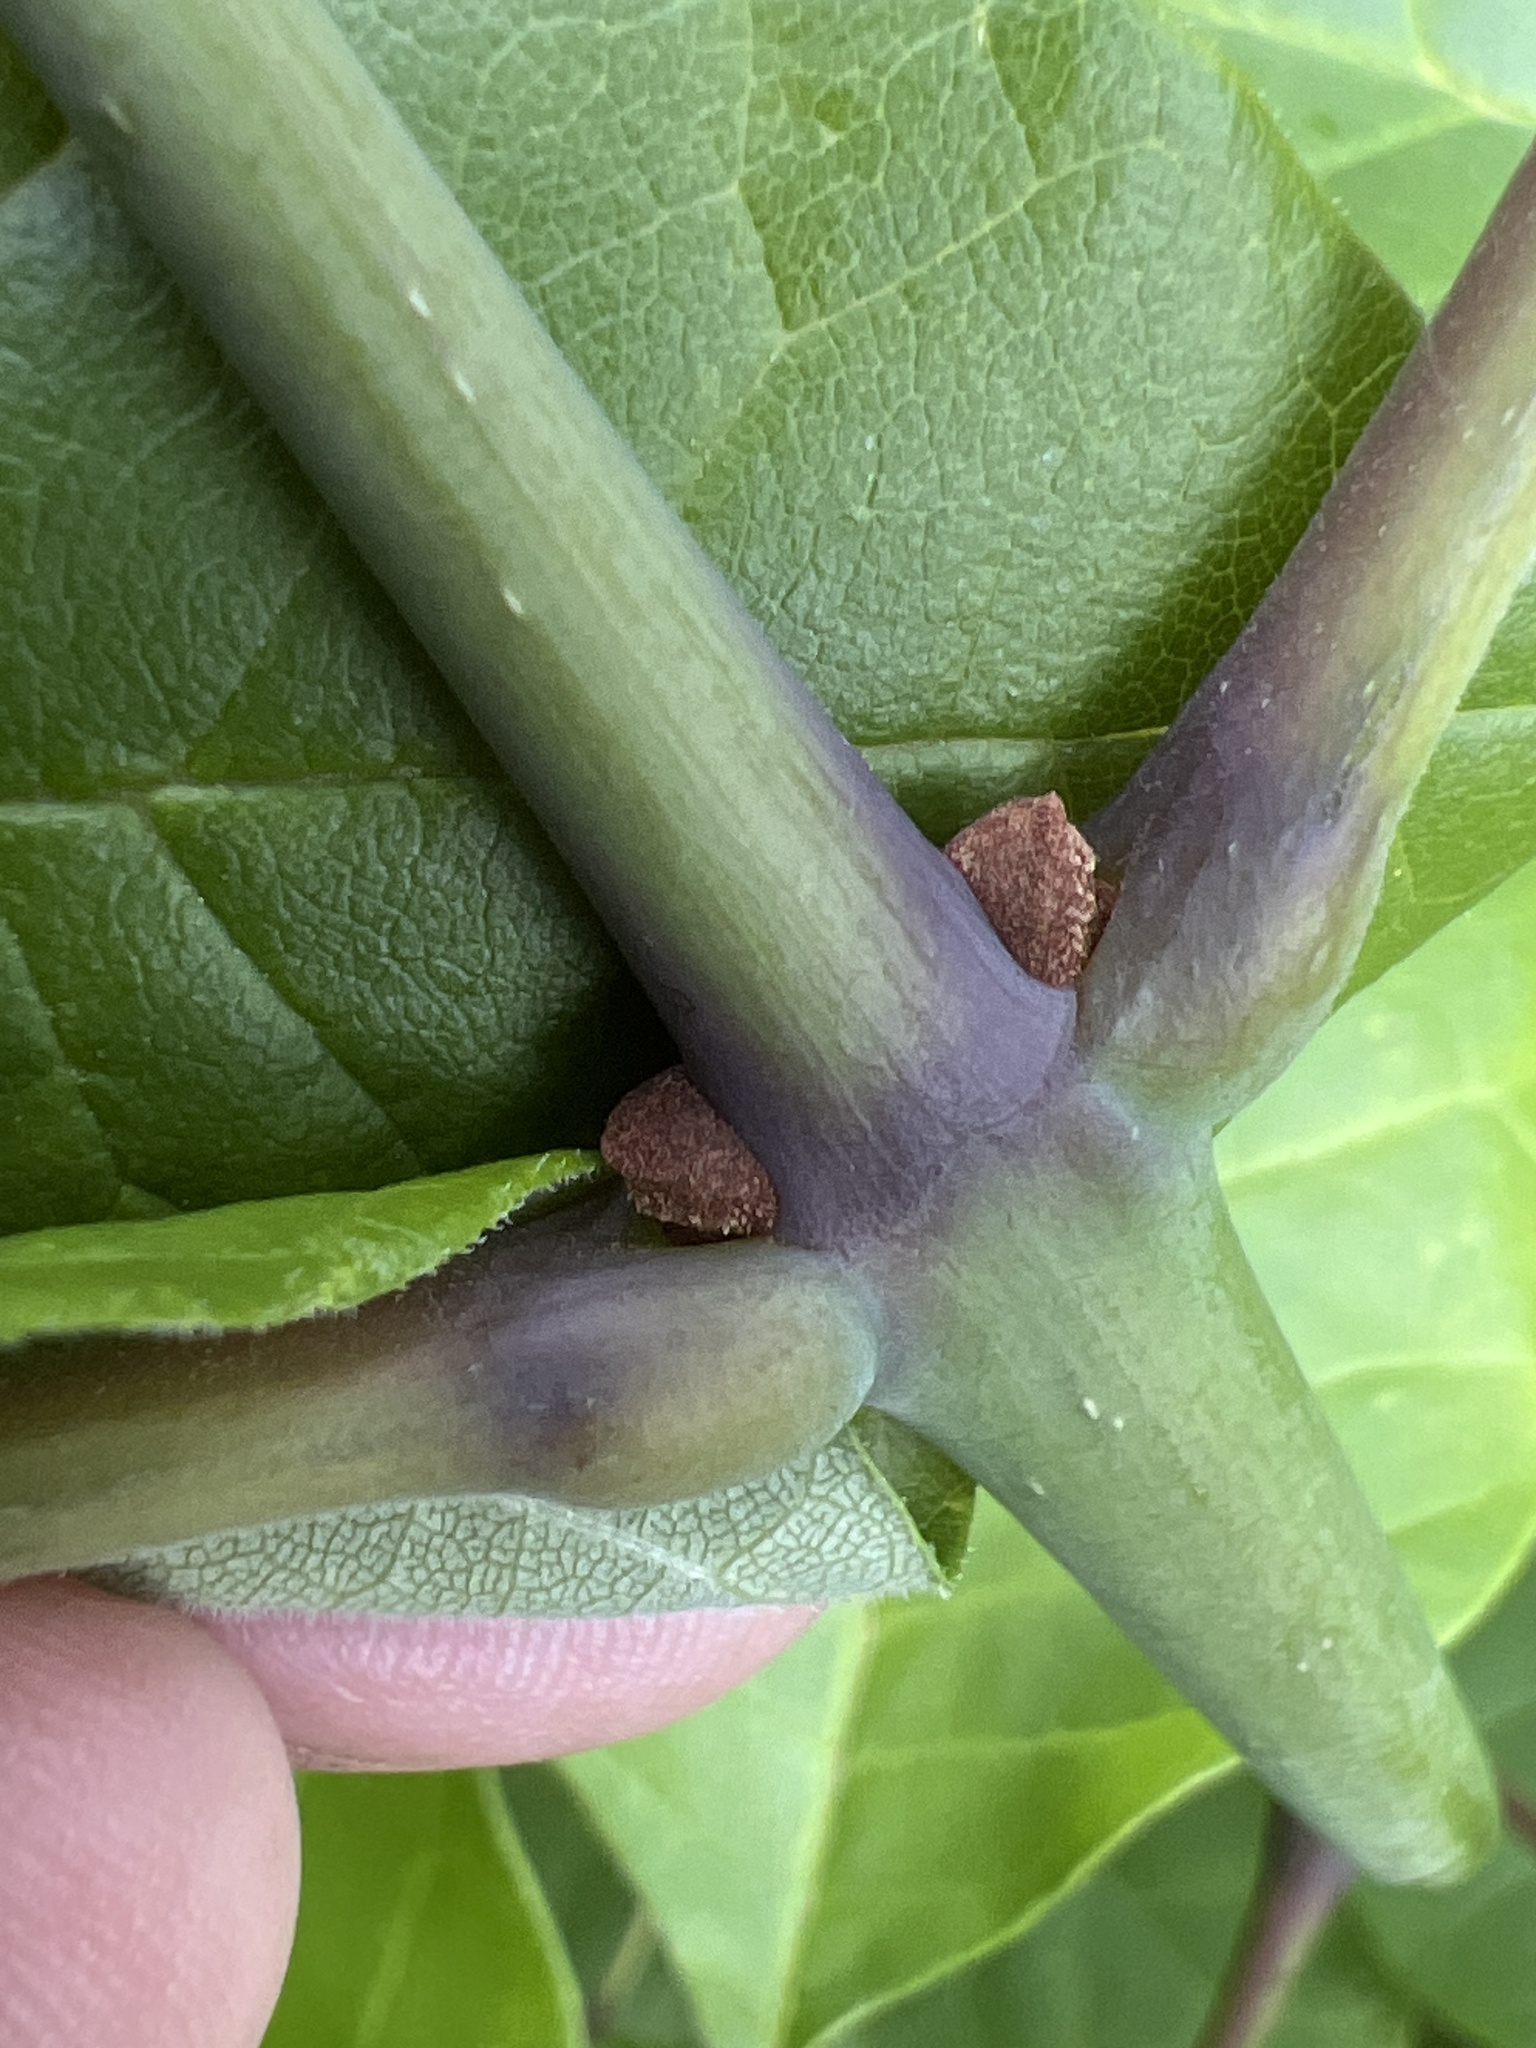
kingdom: Plantae
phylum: Tracheophyta
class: Magnoliopsida
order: Lamiales
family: Oleaceae
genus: Fraxinus
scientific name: Fraxinus americana
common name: White ash
